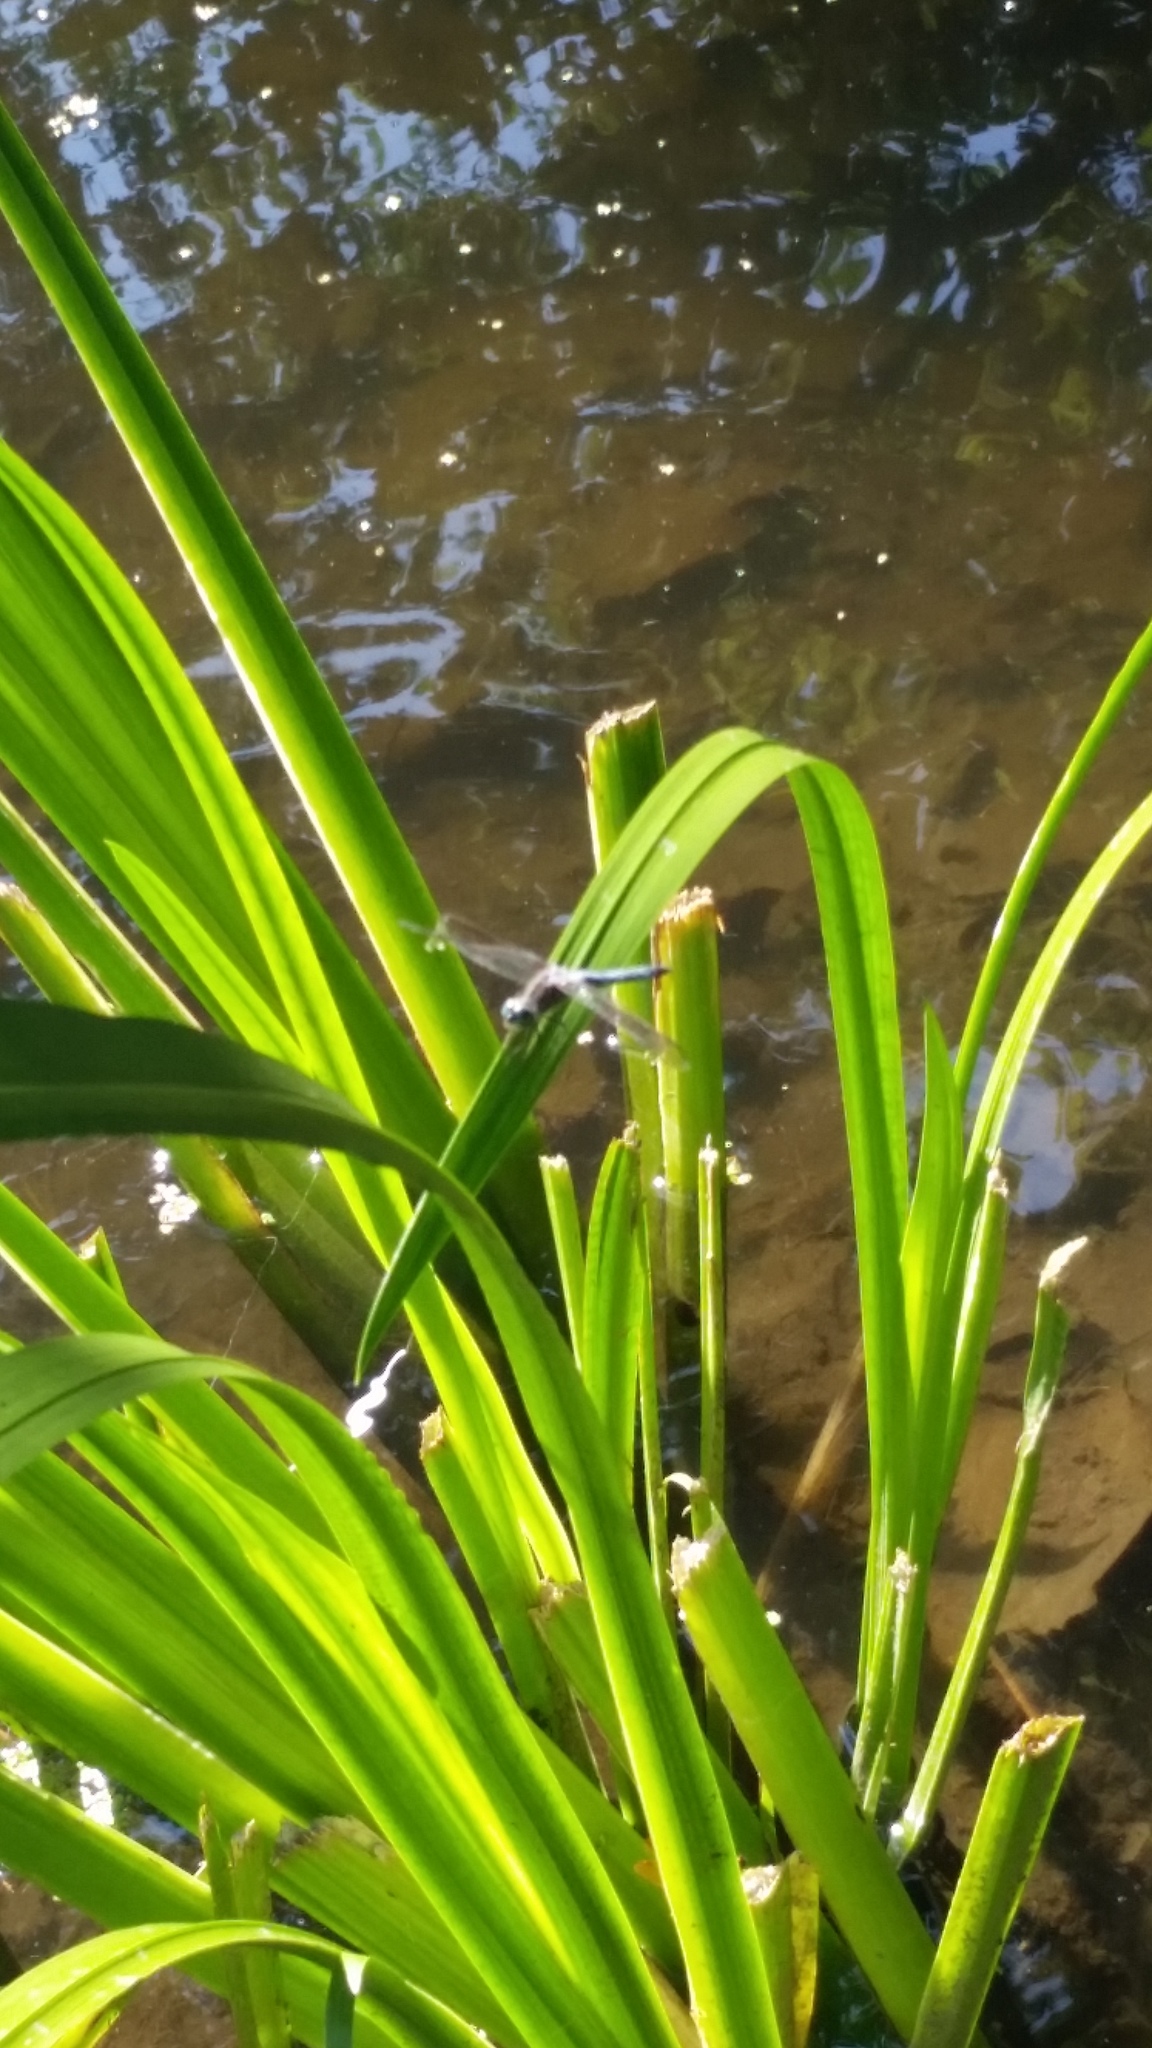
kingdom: Animalia
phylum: Arthropoda
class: Insecta
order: Odonata
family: Libellulidae
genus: Pachydiplax
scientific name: Pachydiplax longipennis
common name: Blue dasher
